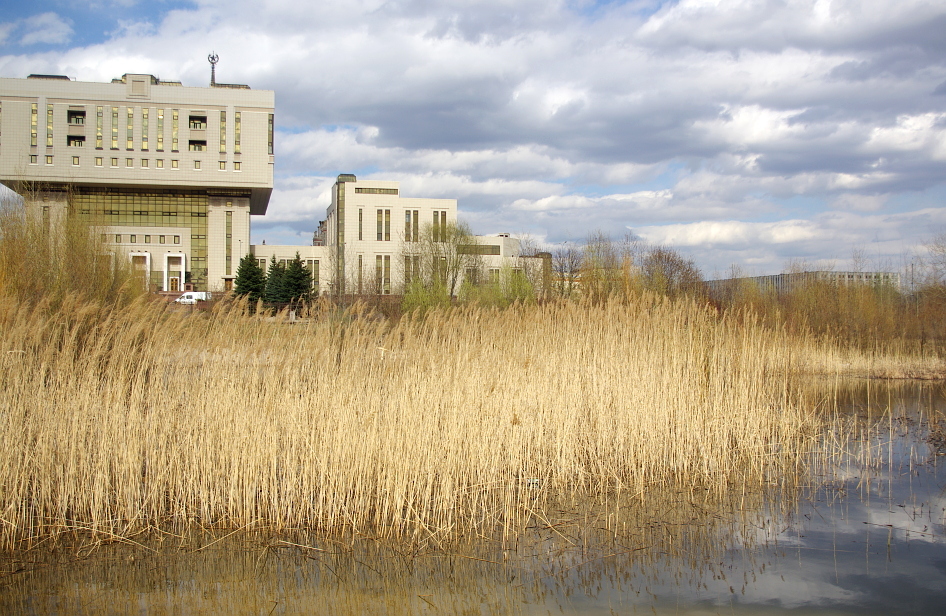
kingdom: Plantae
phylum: Tracheophyta
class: Liliopsida
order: Poales
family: Poaceae
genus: Phragmites
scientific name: Phragmites australis
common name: Common reed
